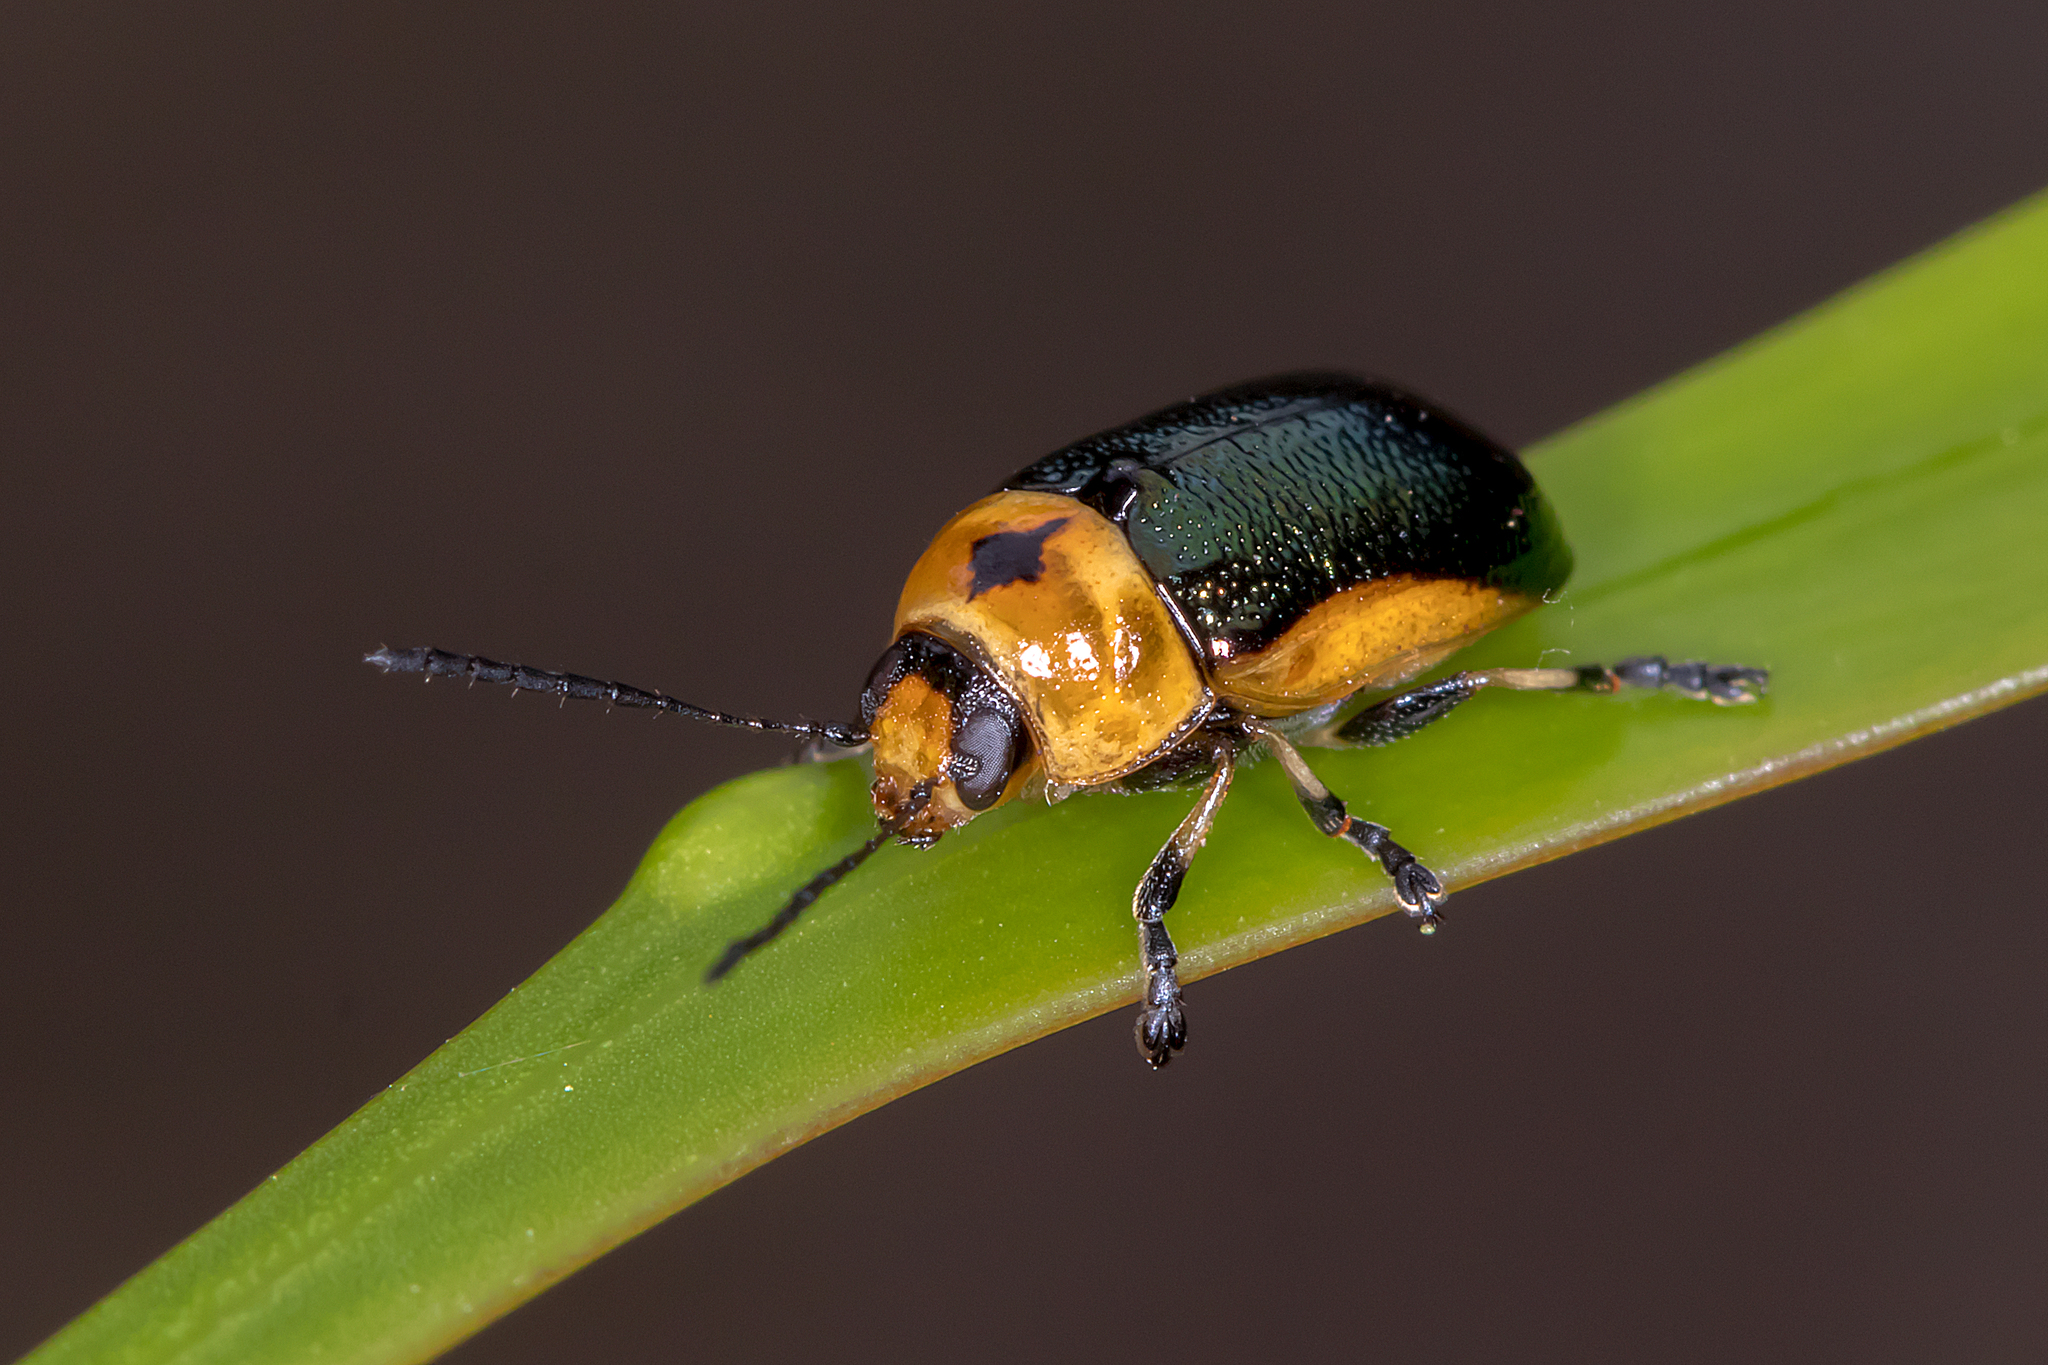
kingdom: Animalia
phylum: Arthropoda
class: Insecta
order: Coleoptera
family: Chrysomelidae
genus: Aporocera
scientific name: Aporocera
